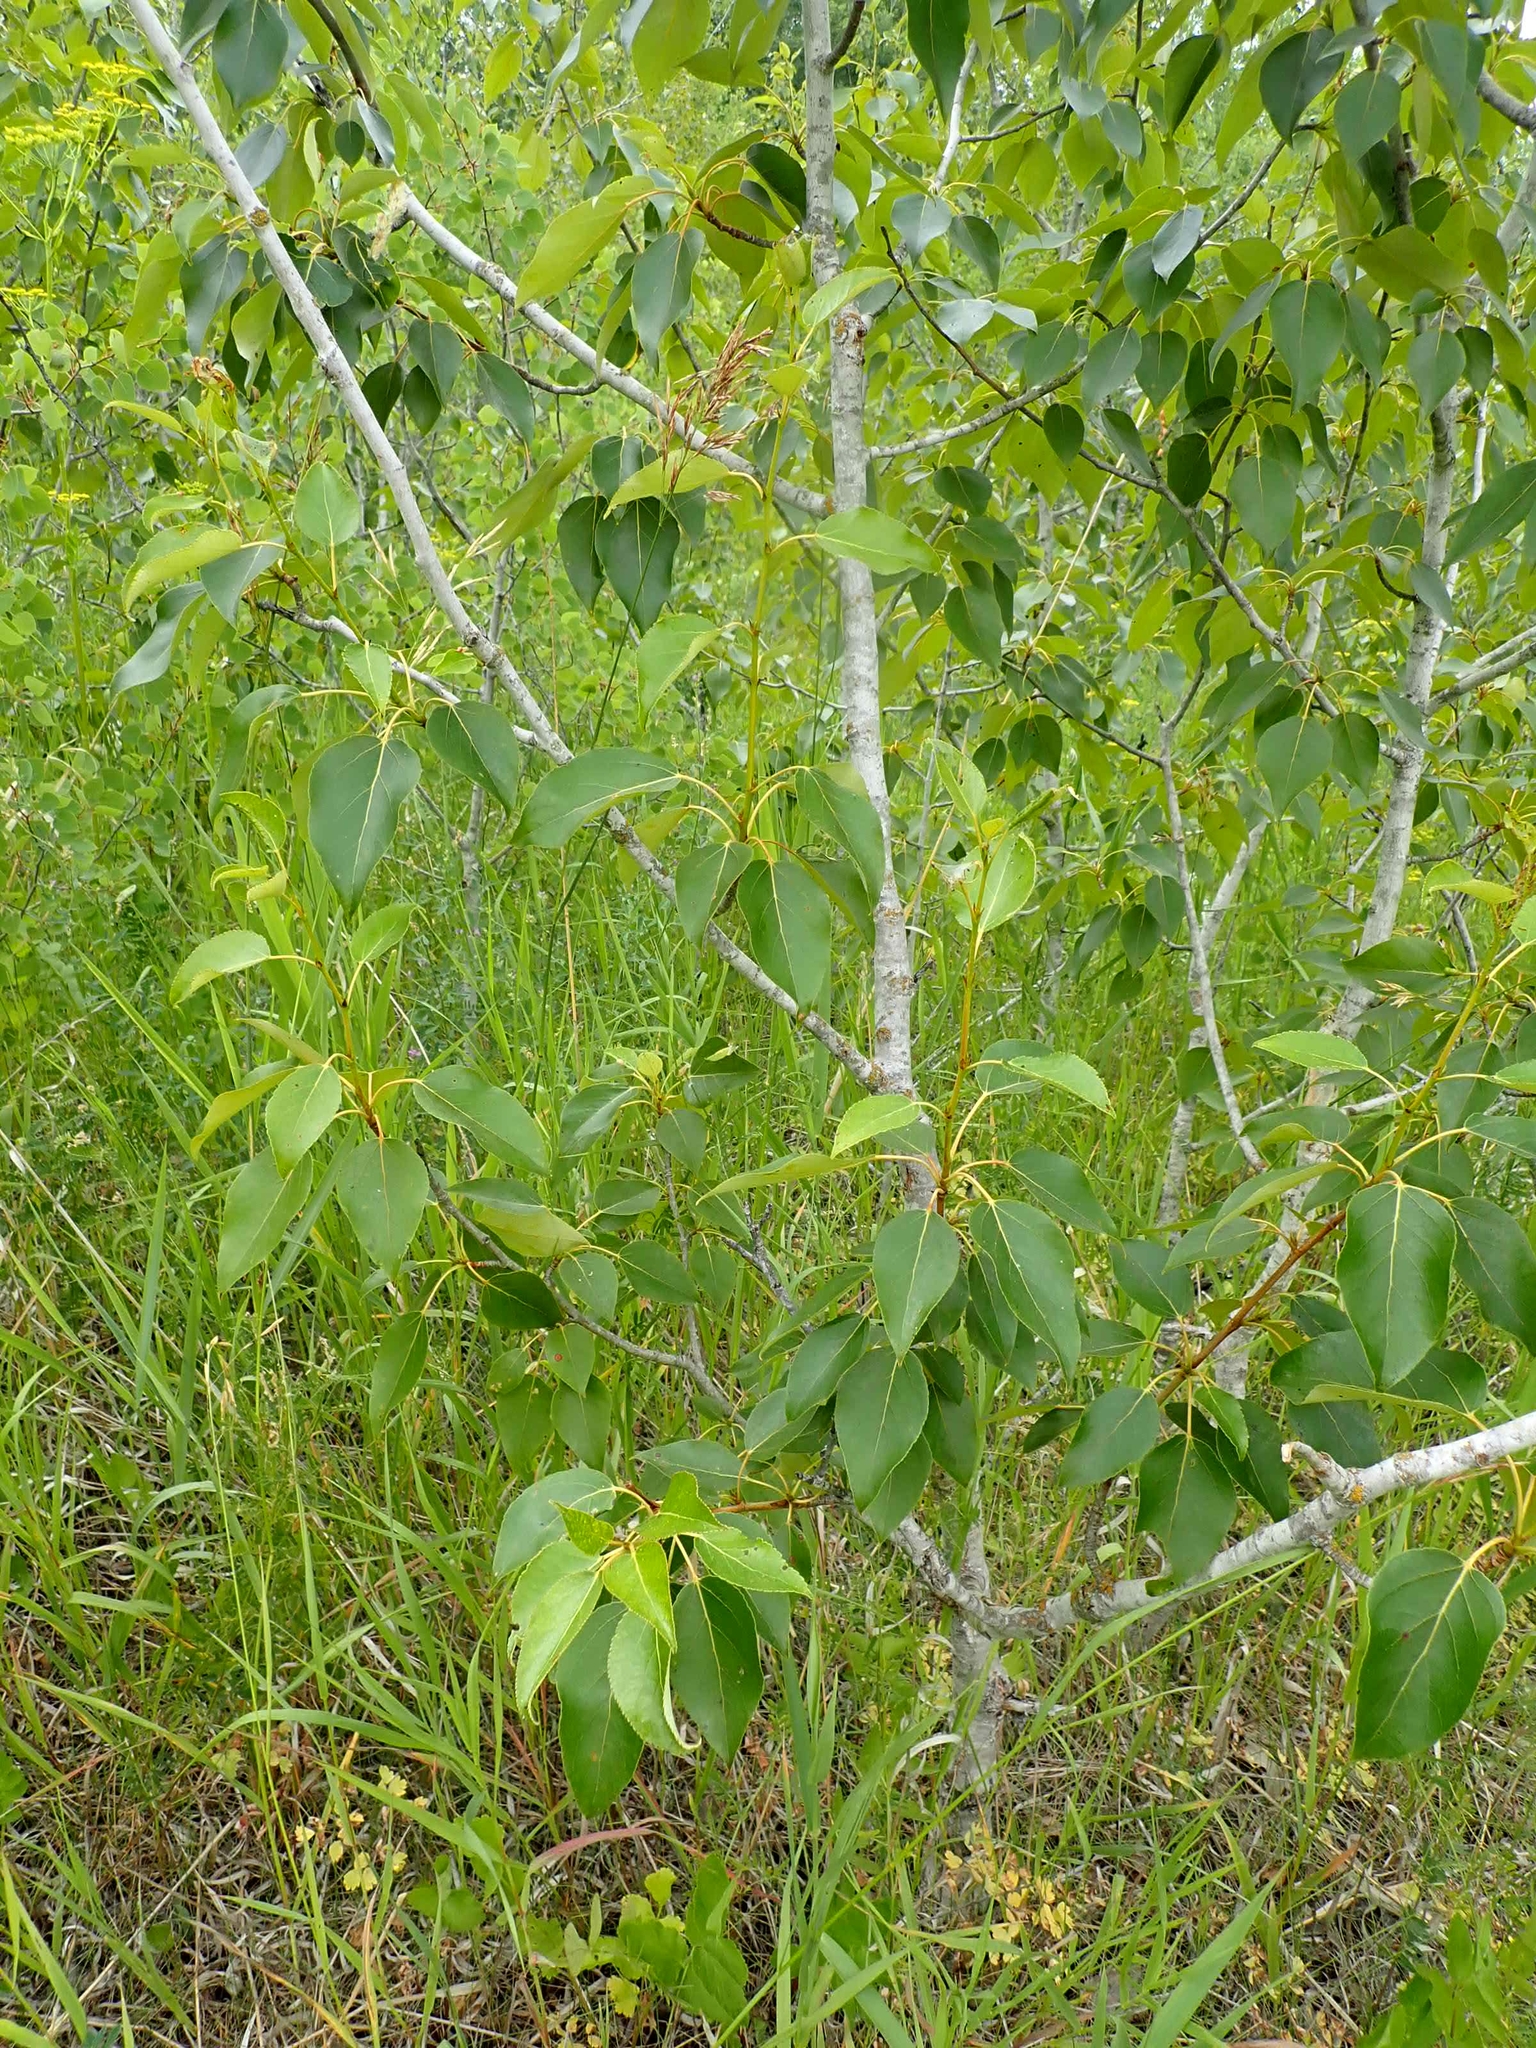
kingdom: Plantae
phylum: Tracheophyta
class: Magnoliopsida
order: Malpighiales
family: Salicaceae
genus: Populus
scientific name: Populus balsamifera
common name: Balsam poplar
